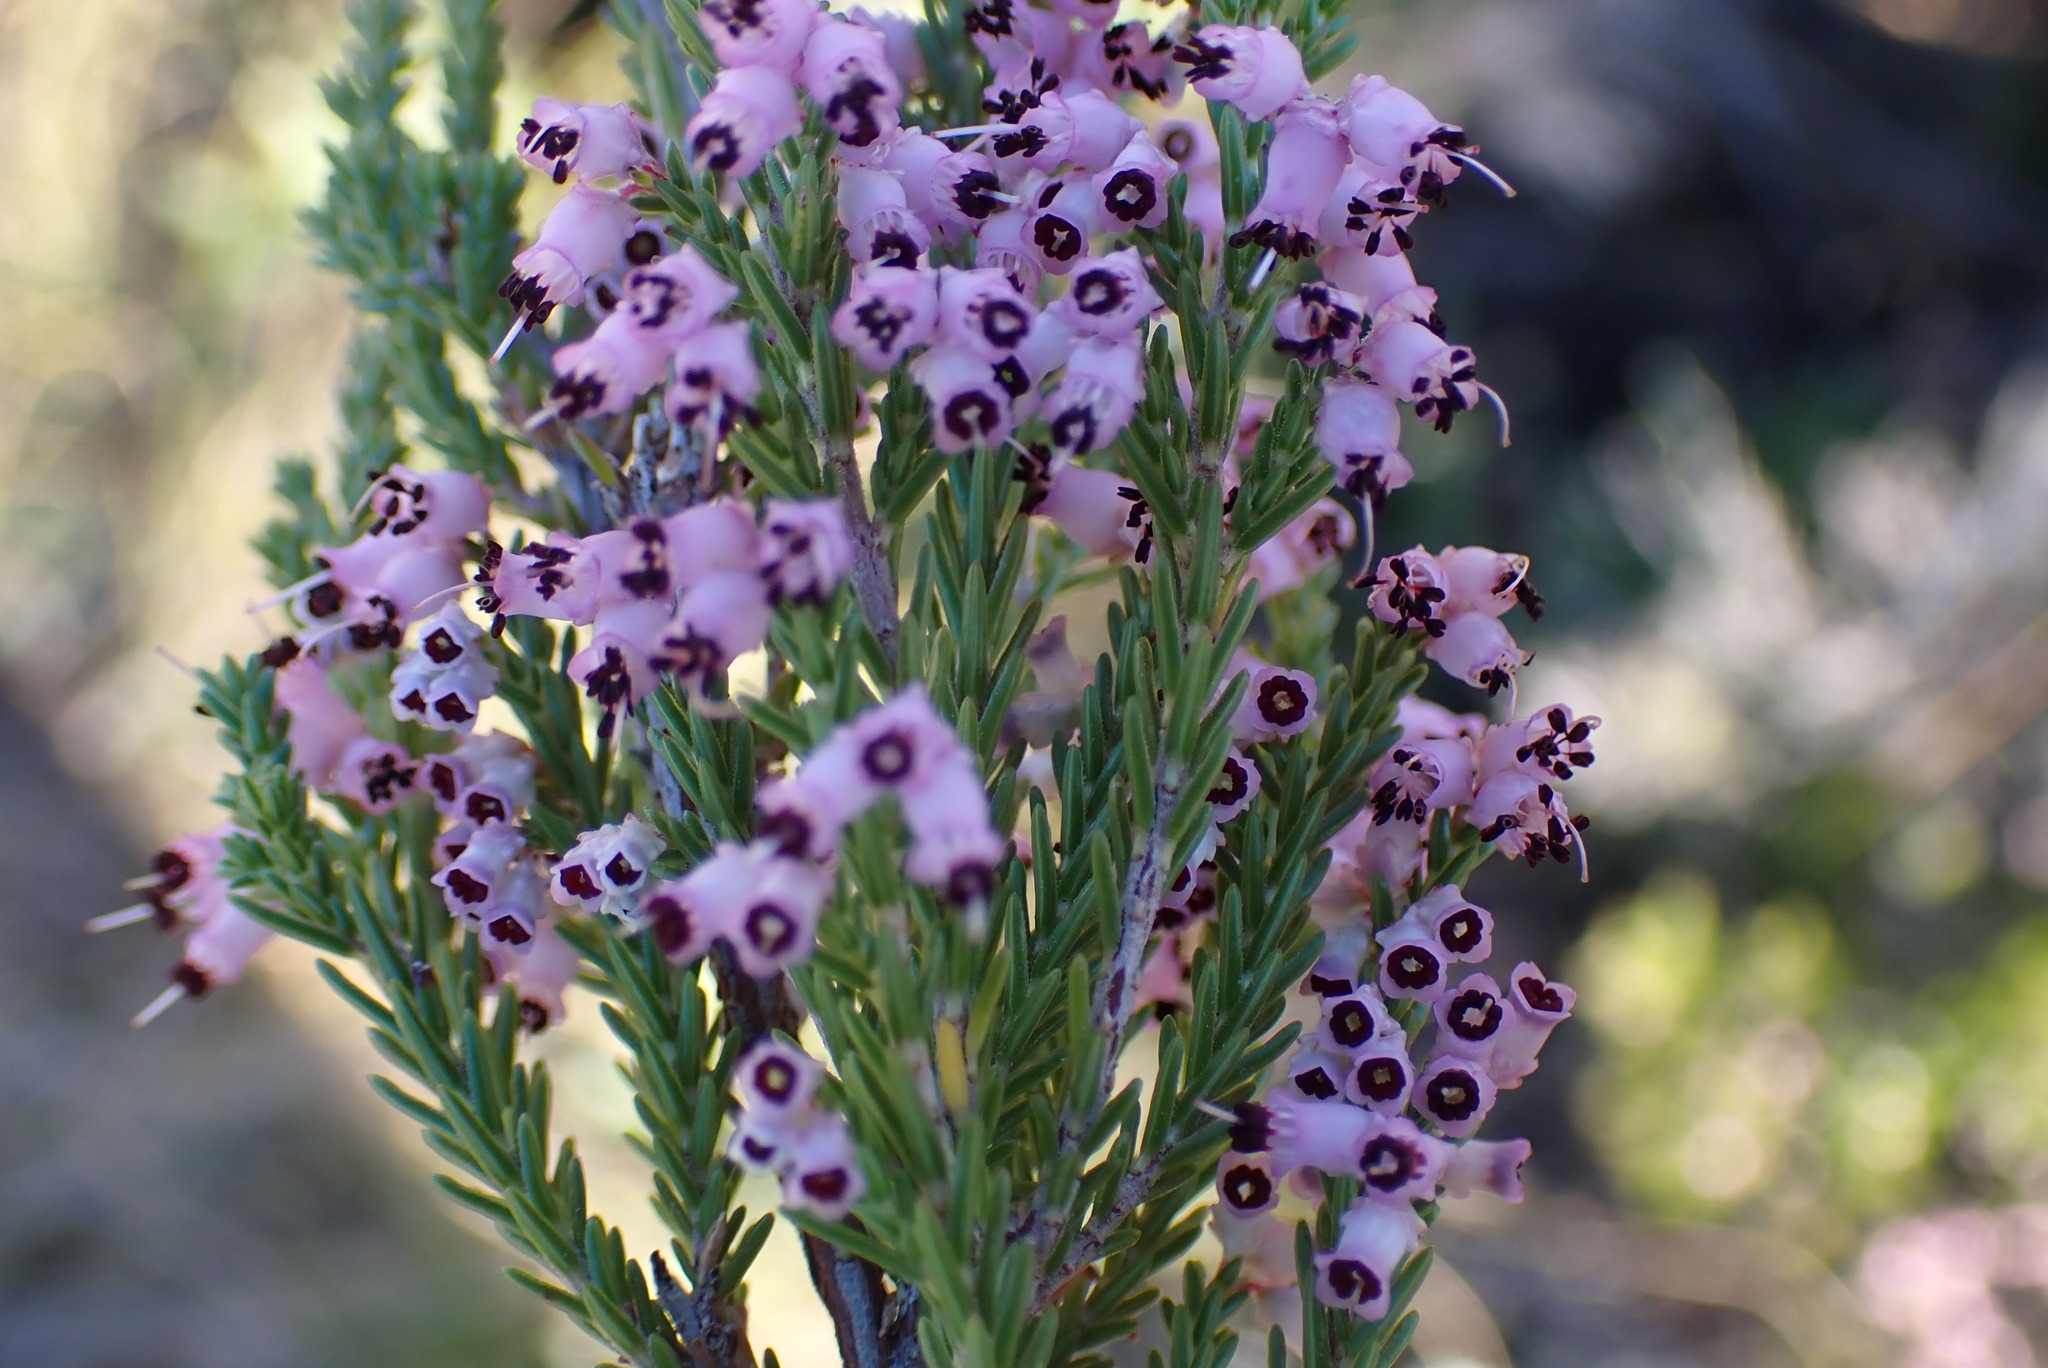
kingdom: Plantae
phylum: Tracheophyta
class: Magnoliopsida
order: Ericales
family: Ericaceae
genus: Erica
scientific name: Erica vlokii
